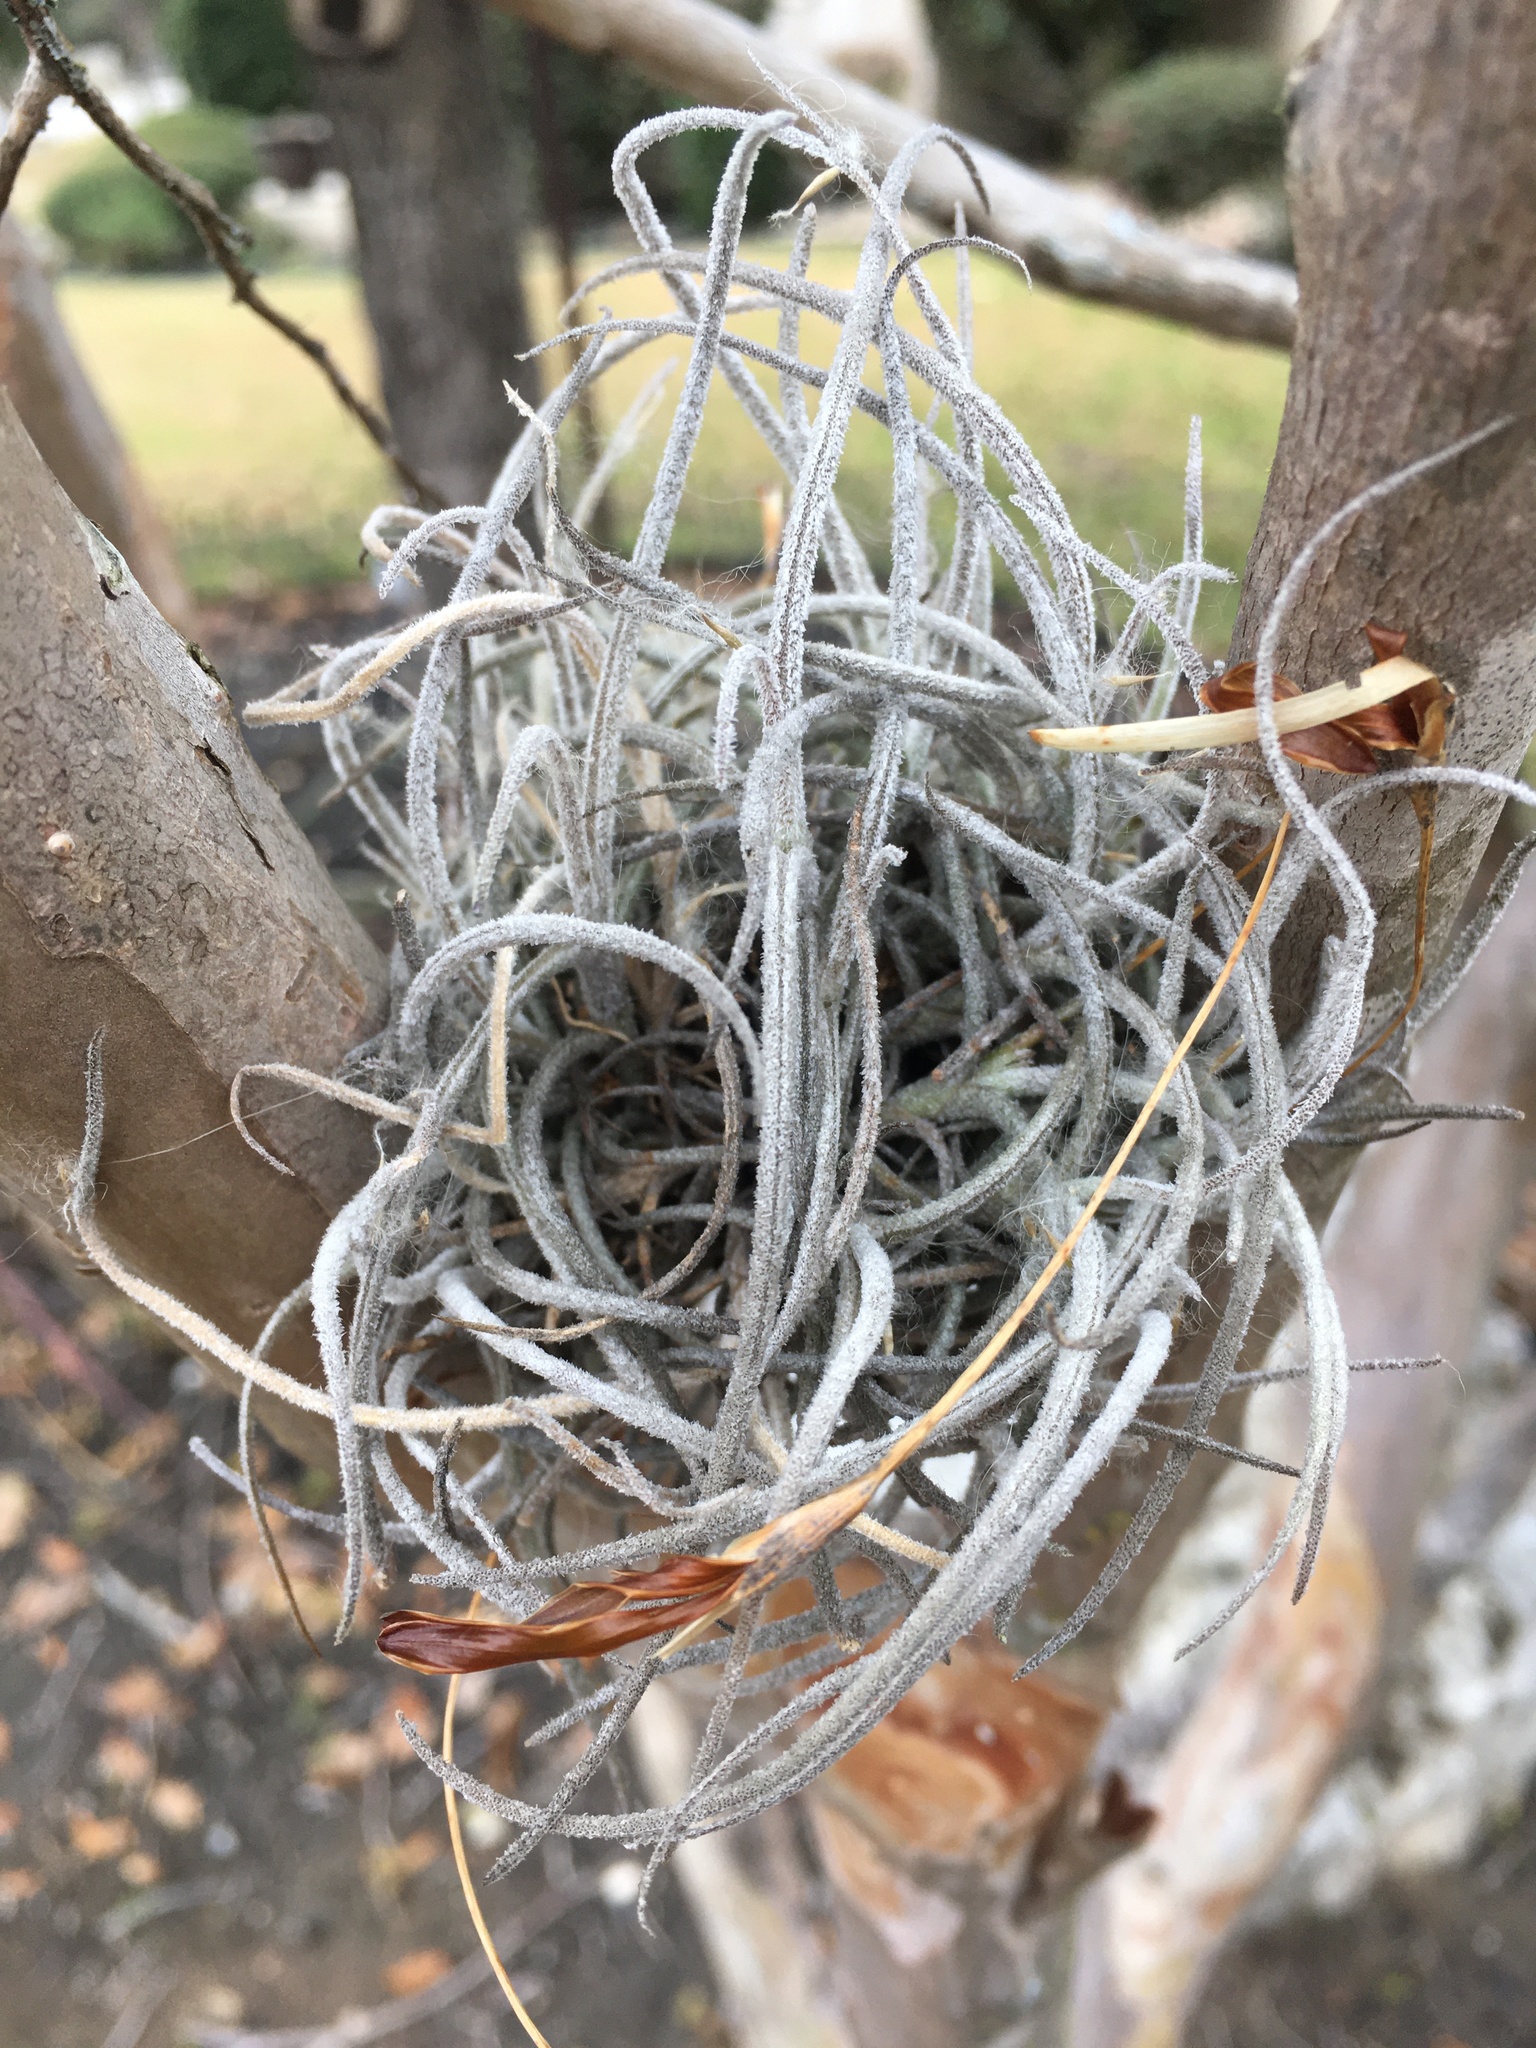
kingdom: Plantae
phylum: Tracheophyta
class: Liliopsida
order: Poales
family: Bromeliaceae
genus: Tillandsia
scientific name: Tillandsia recurvata
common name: Small ballmoss
